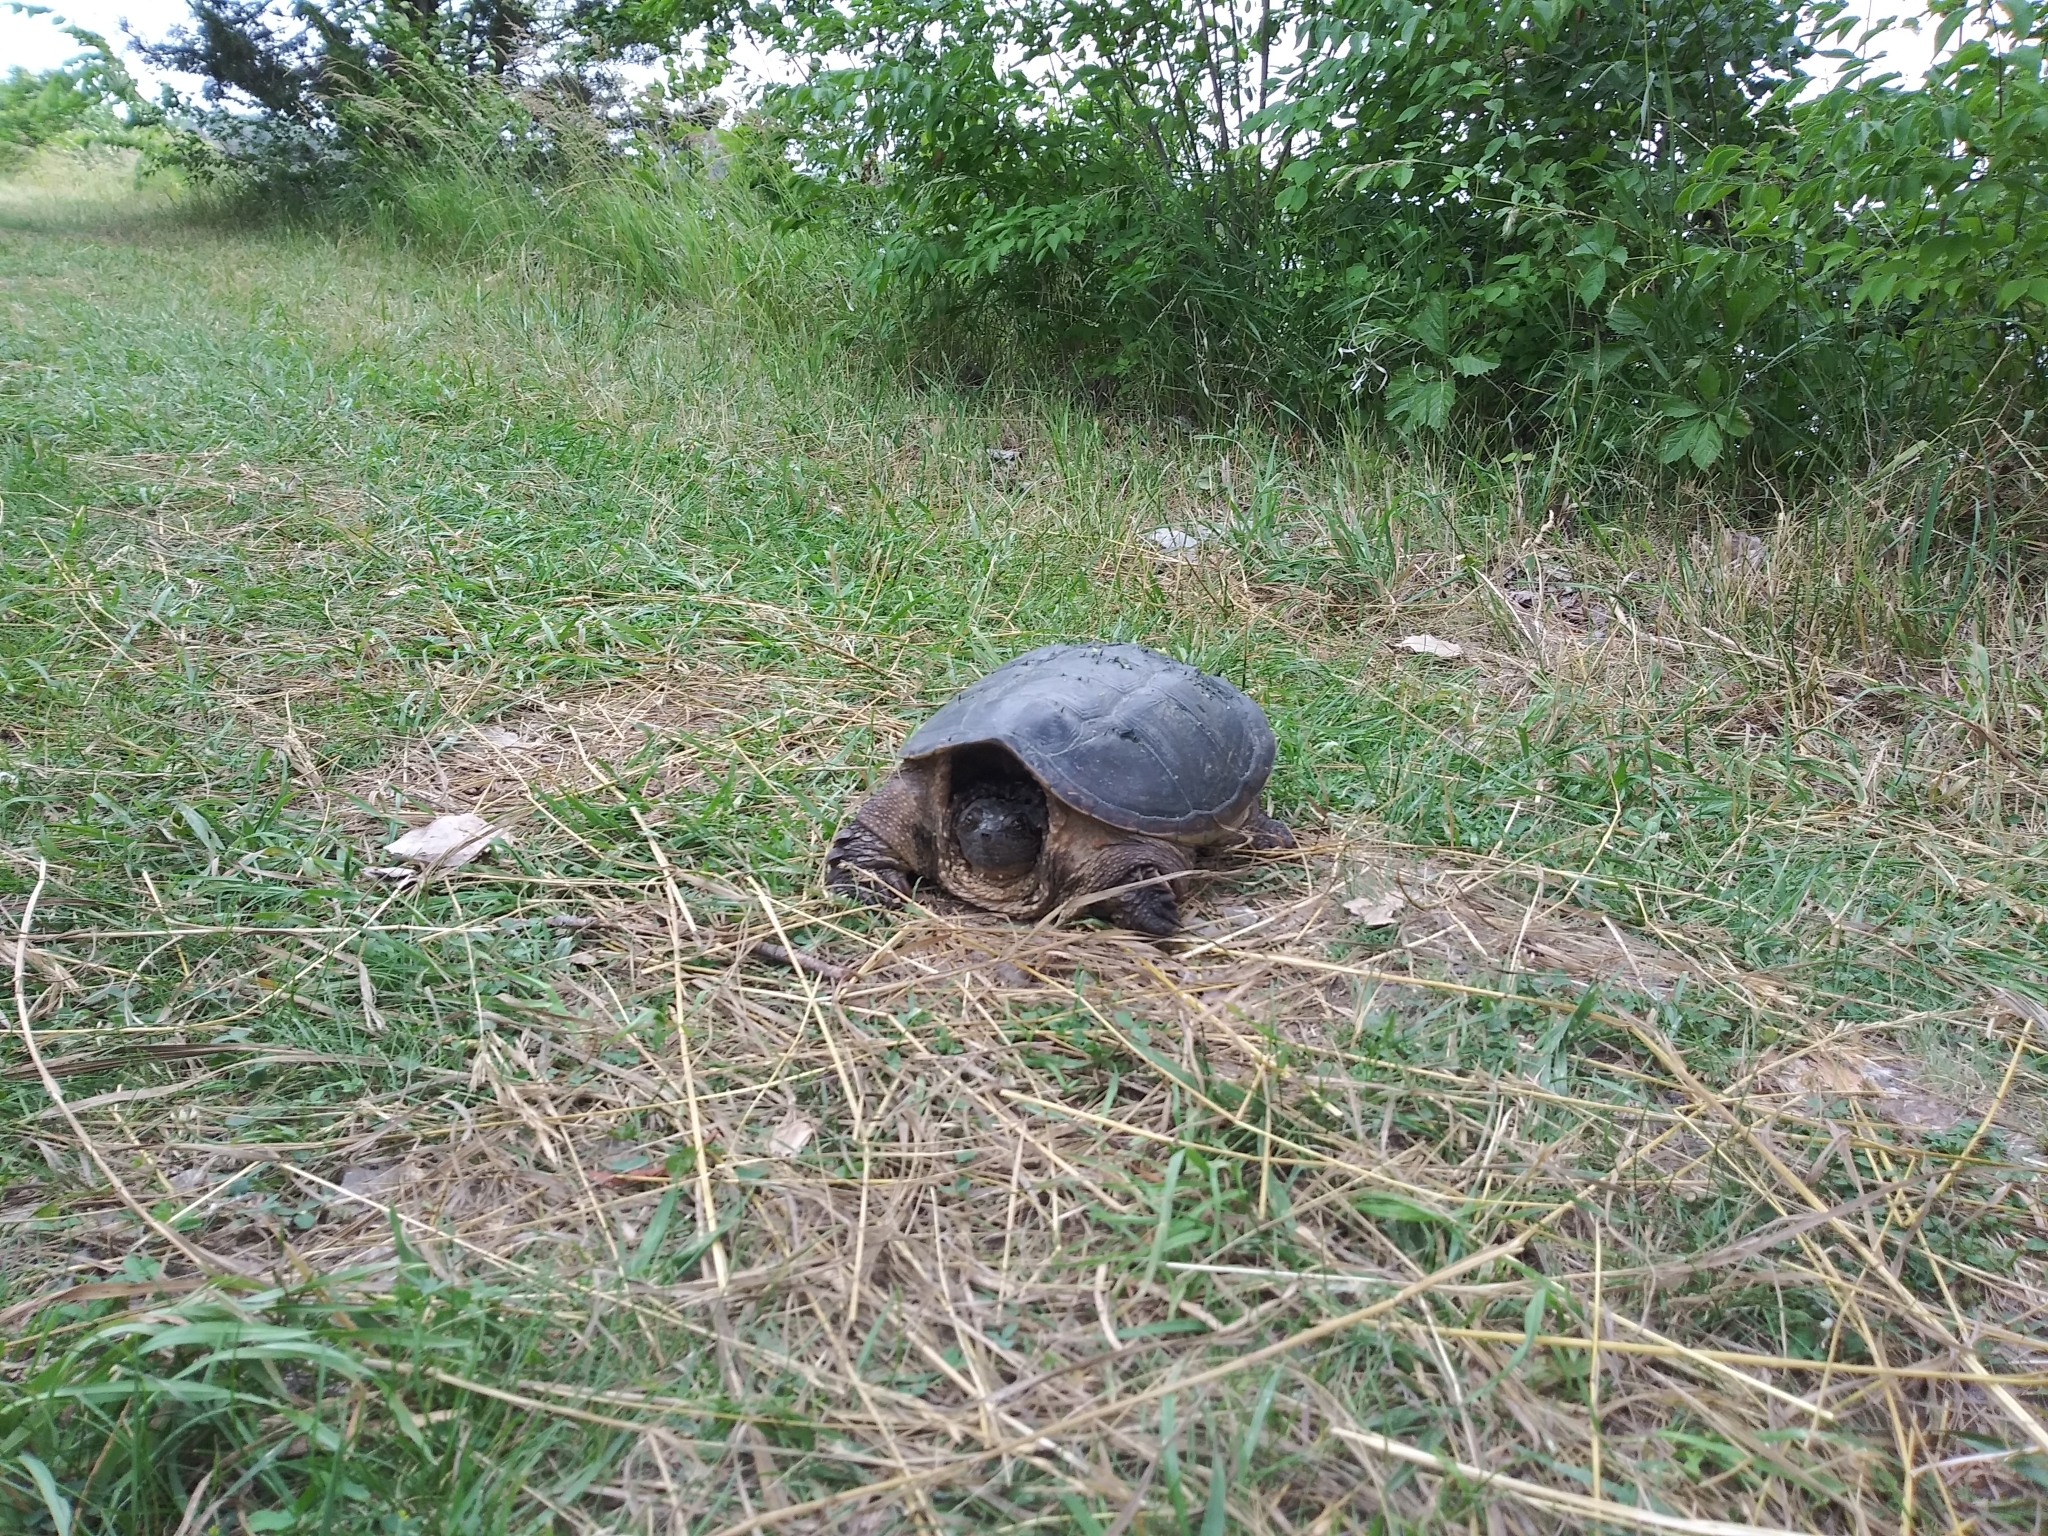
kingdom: Animalia
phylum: Chordata
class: Testudines
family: Chelydridae
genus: Chelydra
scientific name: Chelydra serpentina
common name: Common snapping turtle
